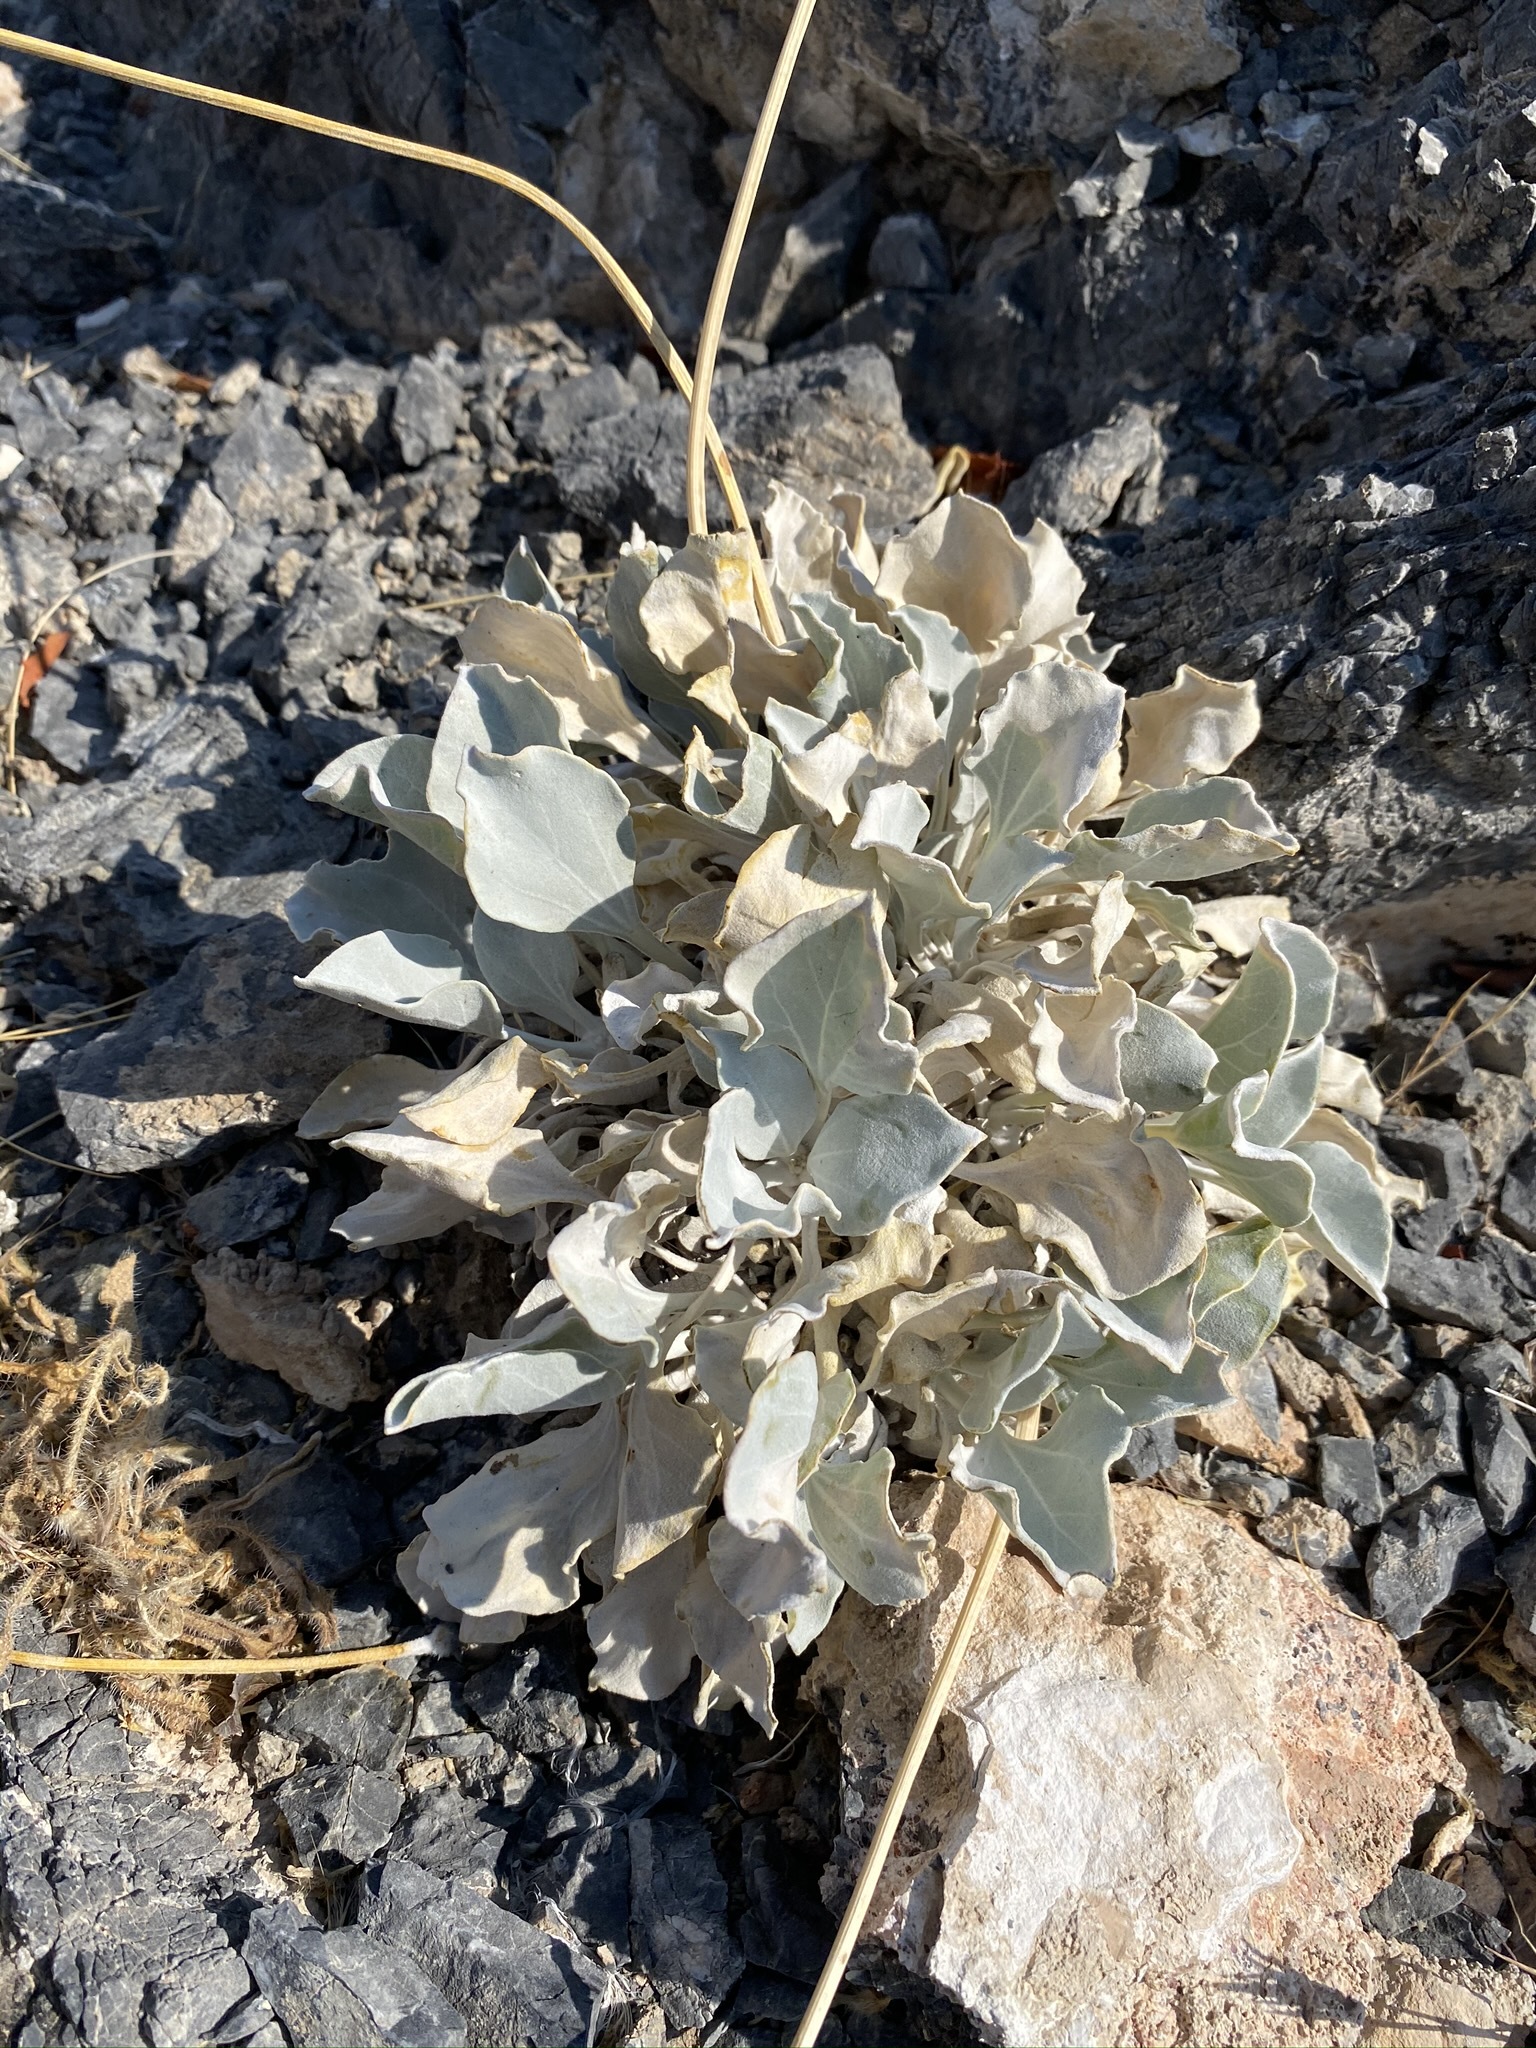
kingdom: Plantae
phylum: Tracheophyta
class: Magnoliopsida
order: Asterales
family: Asteraceae
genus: Enceliopsis
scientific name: Enceliopsis nudicaulis
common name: Naked-stem daisy
